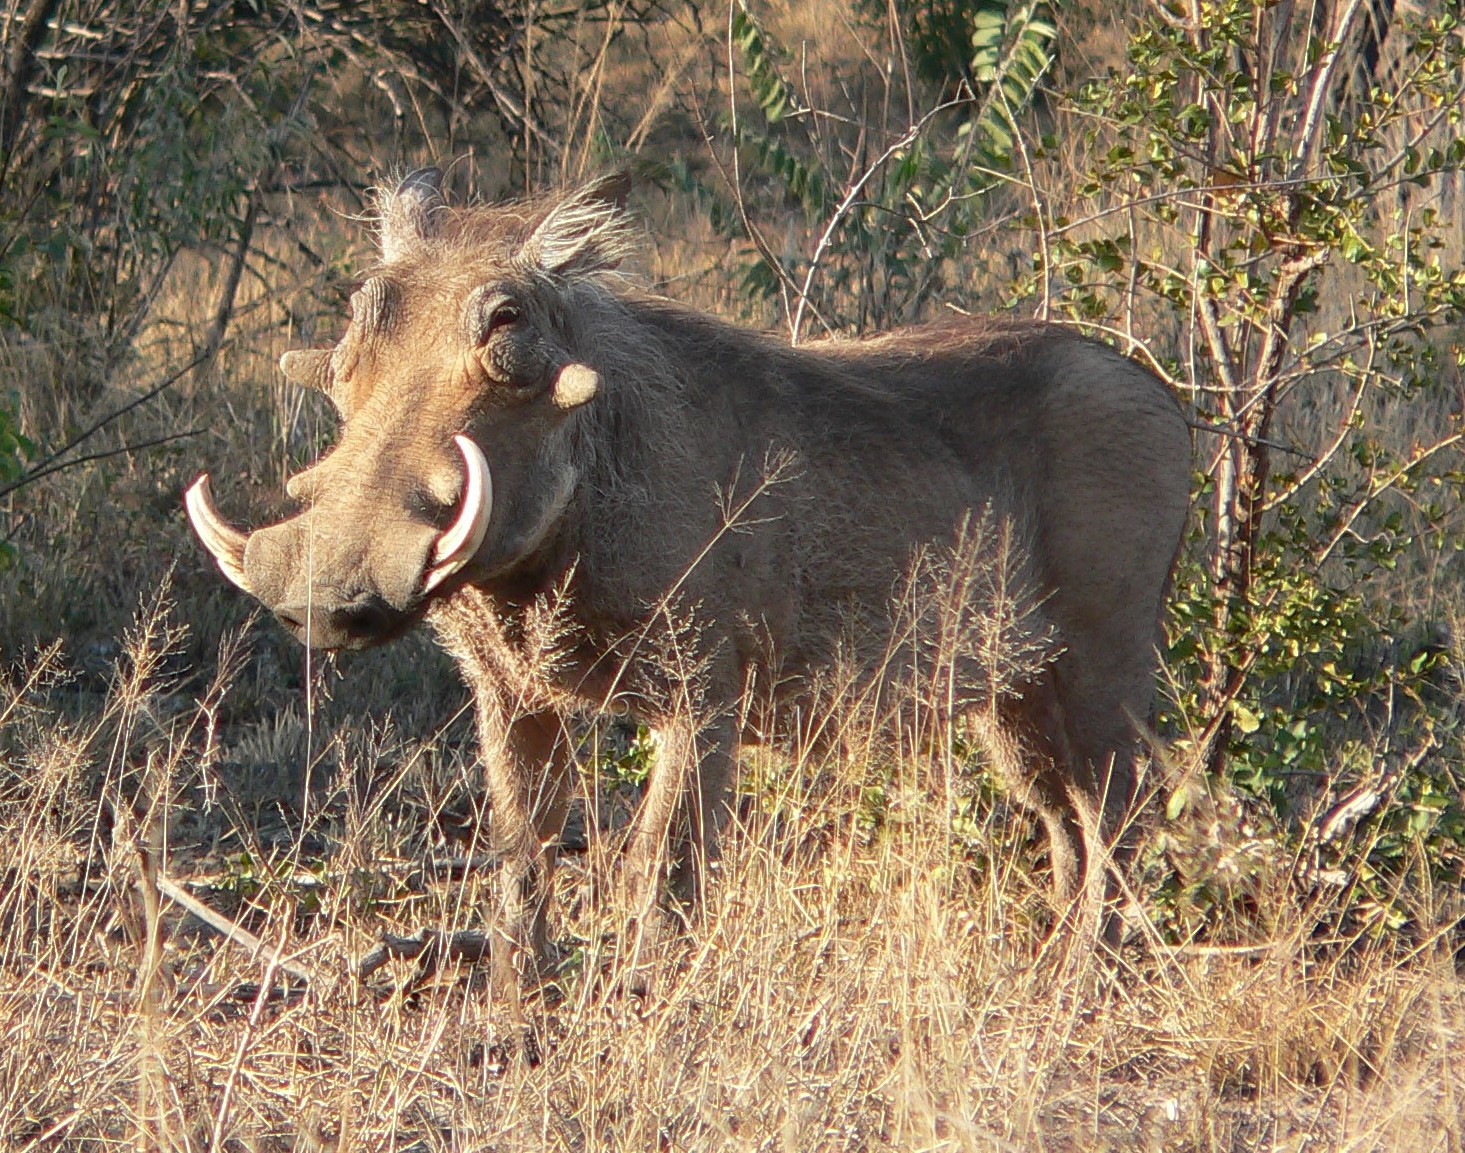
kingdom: Animalia
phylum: Chordata
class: Mammalia
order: Artiodactyla
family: Suidae
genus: Phacochoerus
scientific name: Phacochoerus africanus
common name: Common warthog
